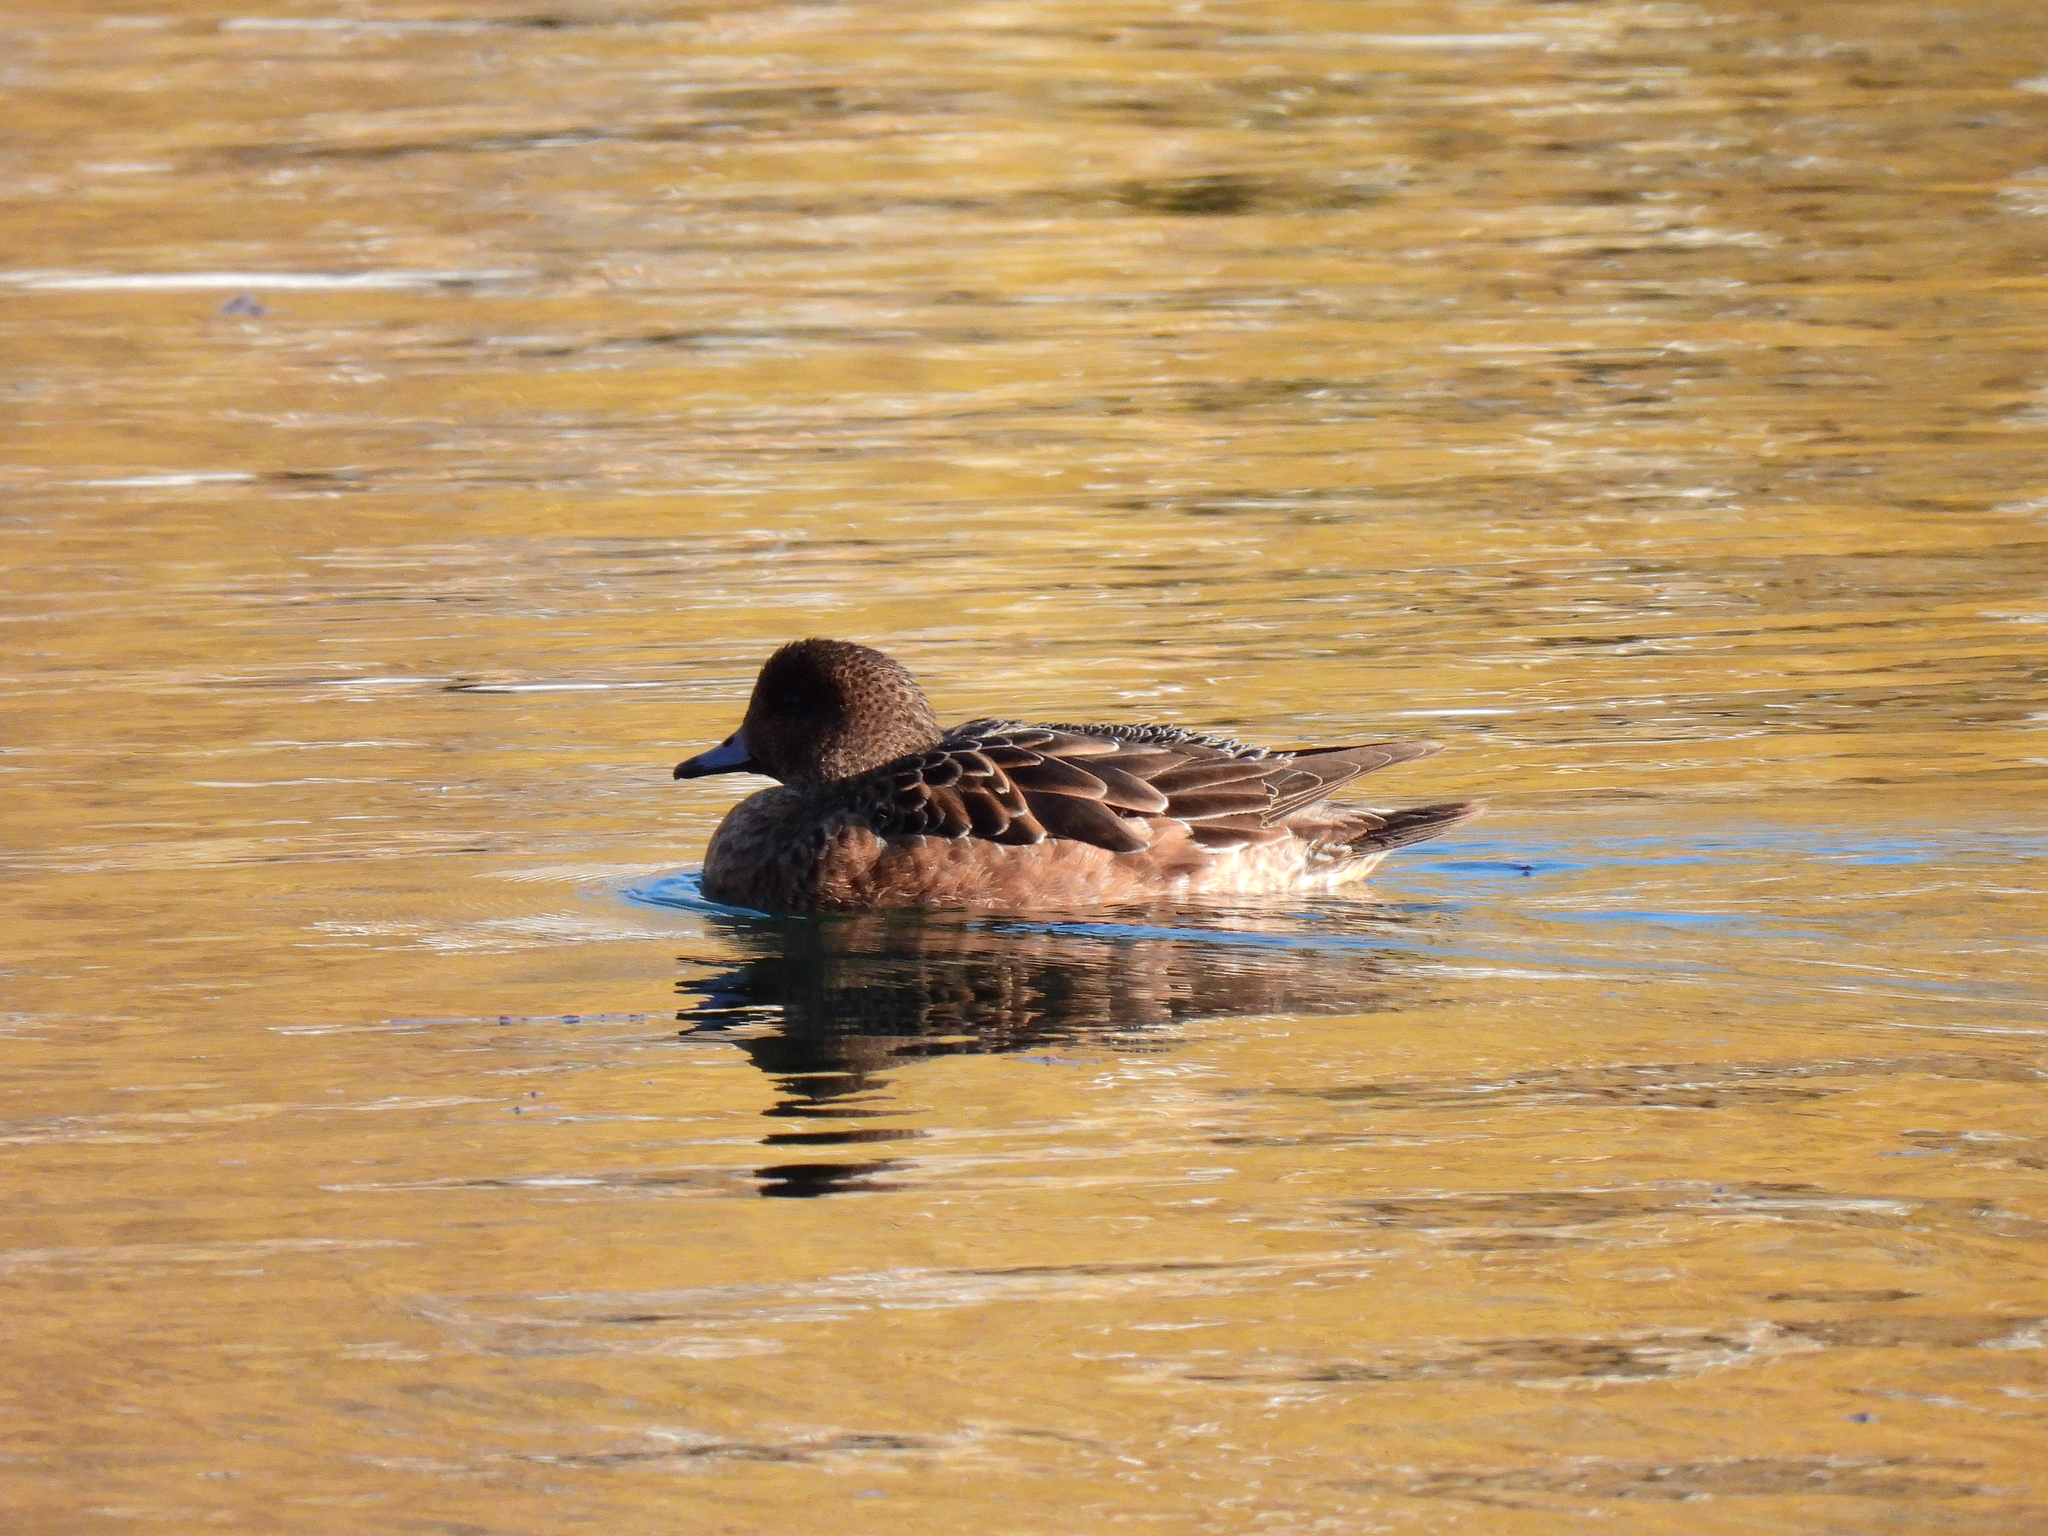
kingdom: Animalia
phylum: Chordata
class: Aves
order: Anseriformes
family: Anatidae
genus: Mareca
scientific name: Mareca penelope
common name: Eurasian wigeon
